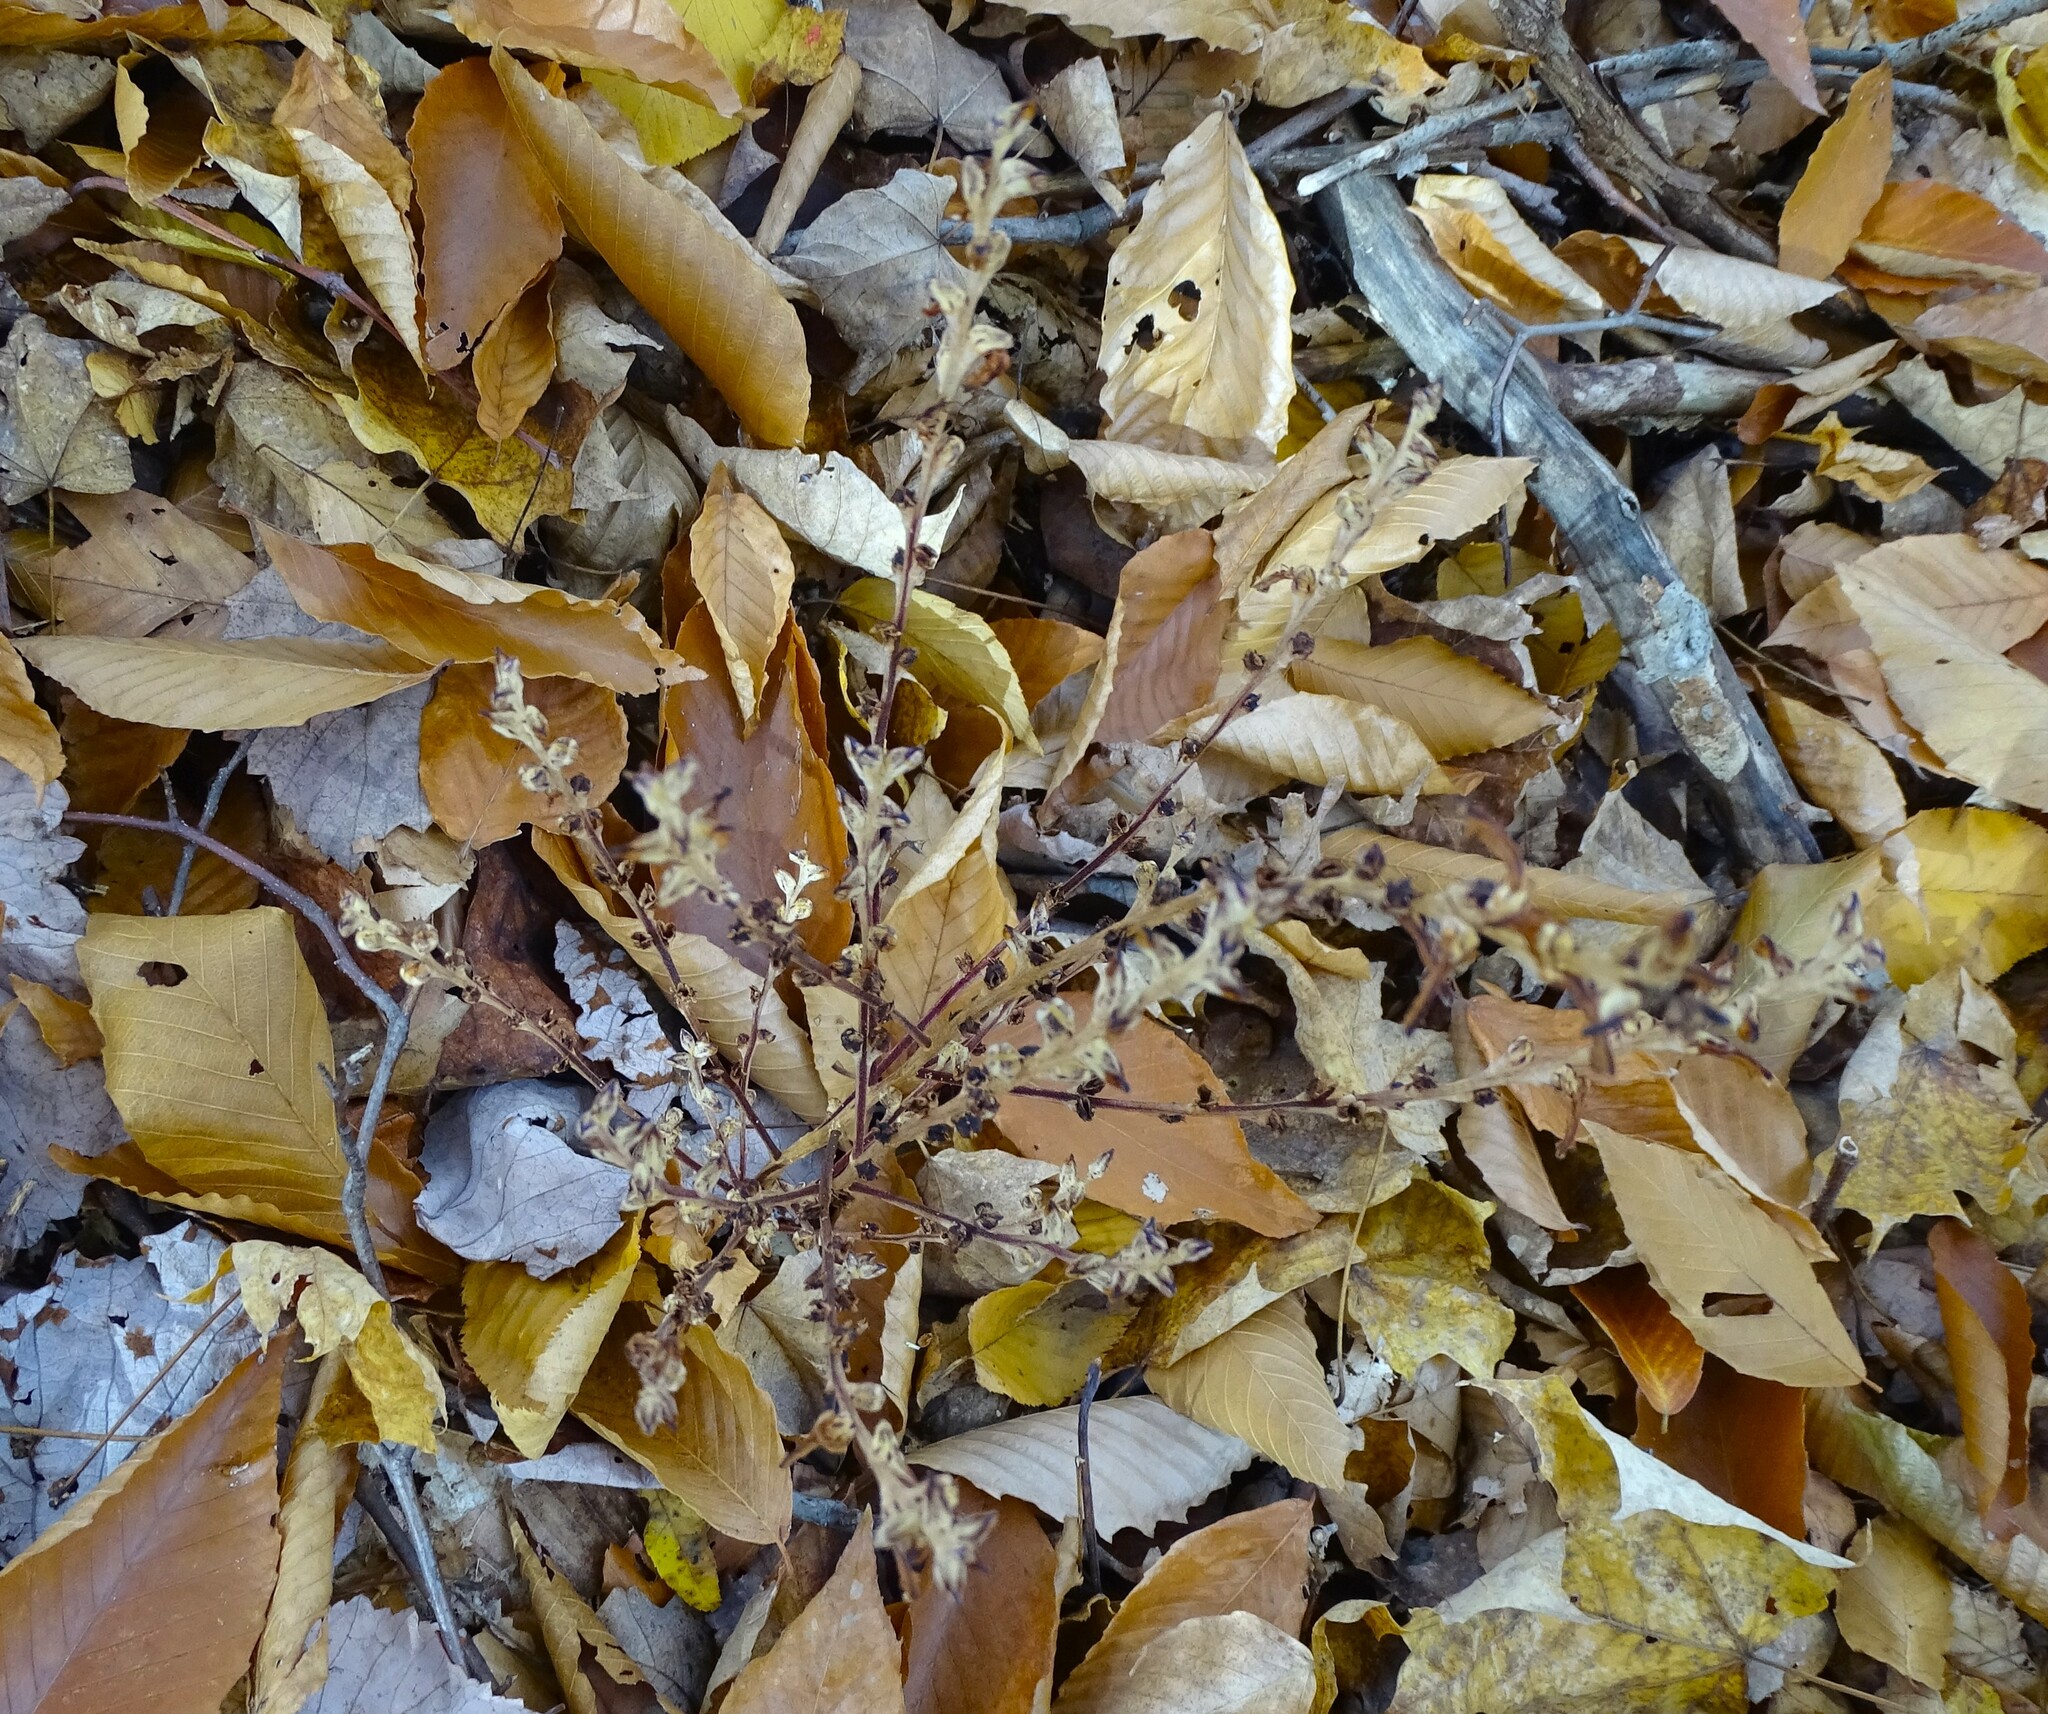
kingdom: Plantae
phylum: Tracheophyta
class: Magnoliopsida
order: Lamiales
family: Orobanchaceae
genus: Epifagus
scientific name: Epifagus virginiana
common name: Beechdrops
